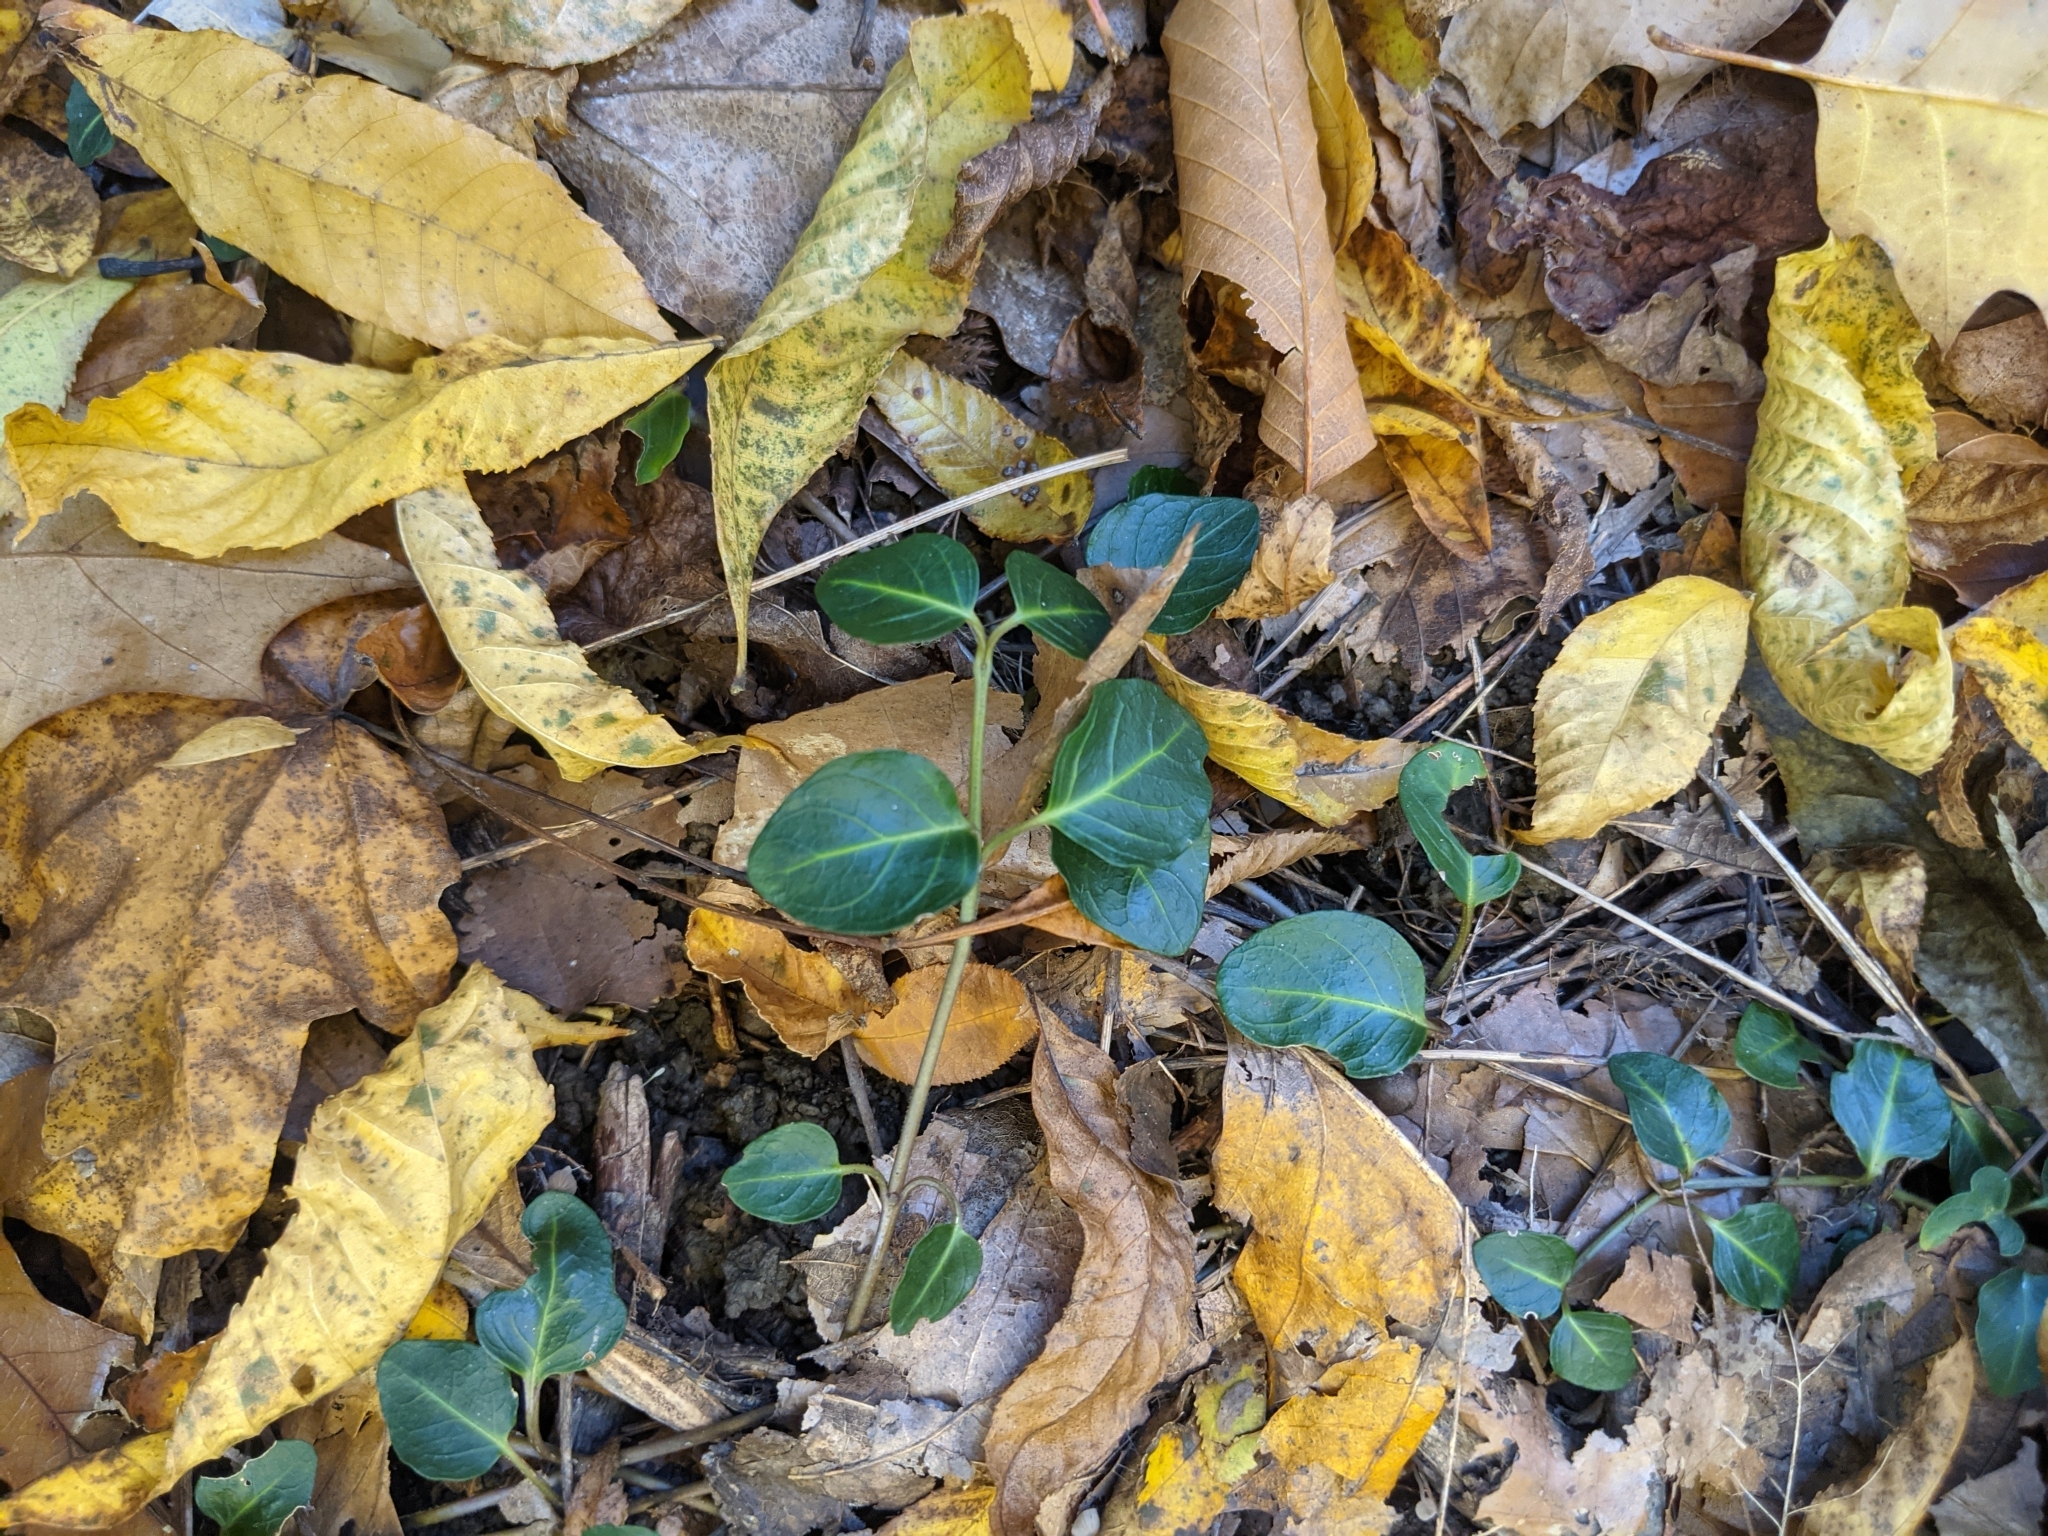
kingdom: Plantae
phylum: Tracheophyta
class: Magnoliopsida
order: Gentianales
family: Rubiaceae
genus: Mitchella
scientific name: Mitchella repens
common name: Partridge-berry
